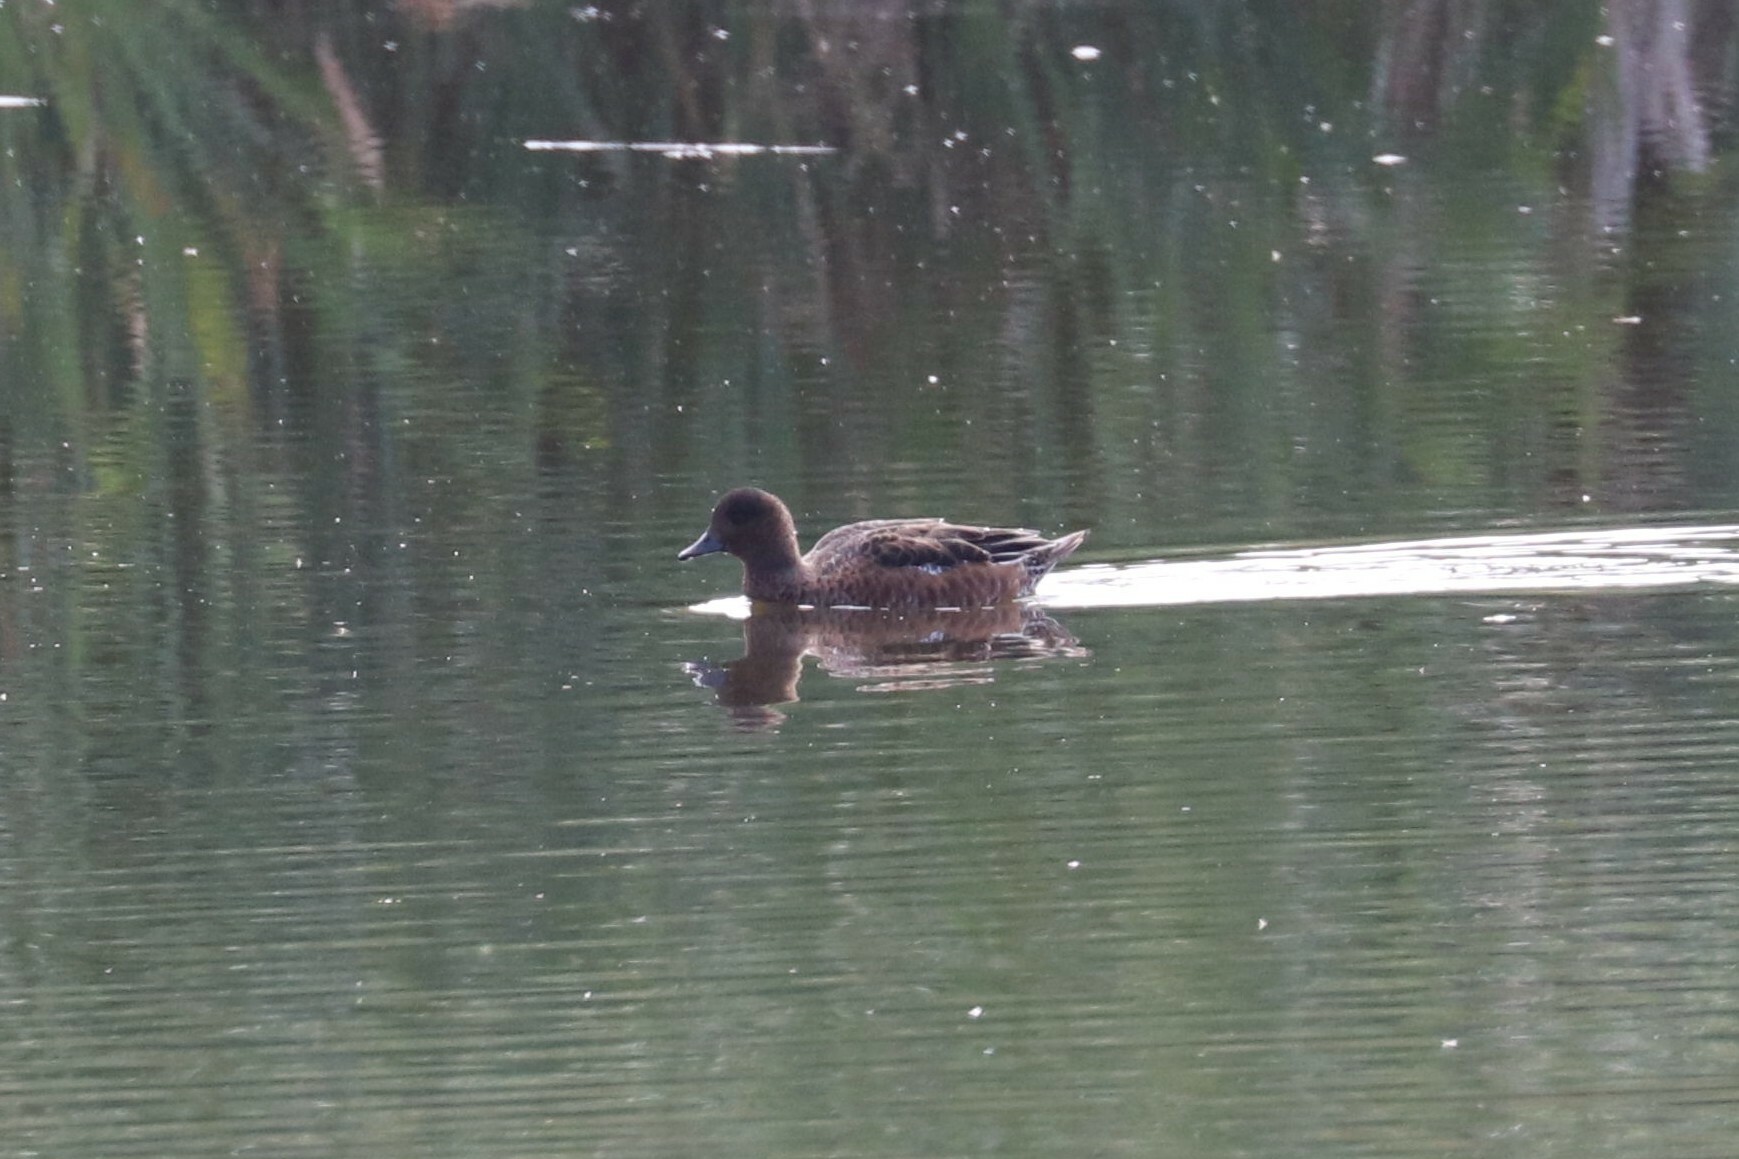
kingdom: Animalia
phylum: Chordata
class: Aves
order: Anseriformes
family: Anatidae
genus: Mareca
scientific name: Mareca penelope
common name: Eurasian wigeon
